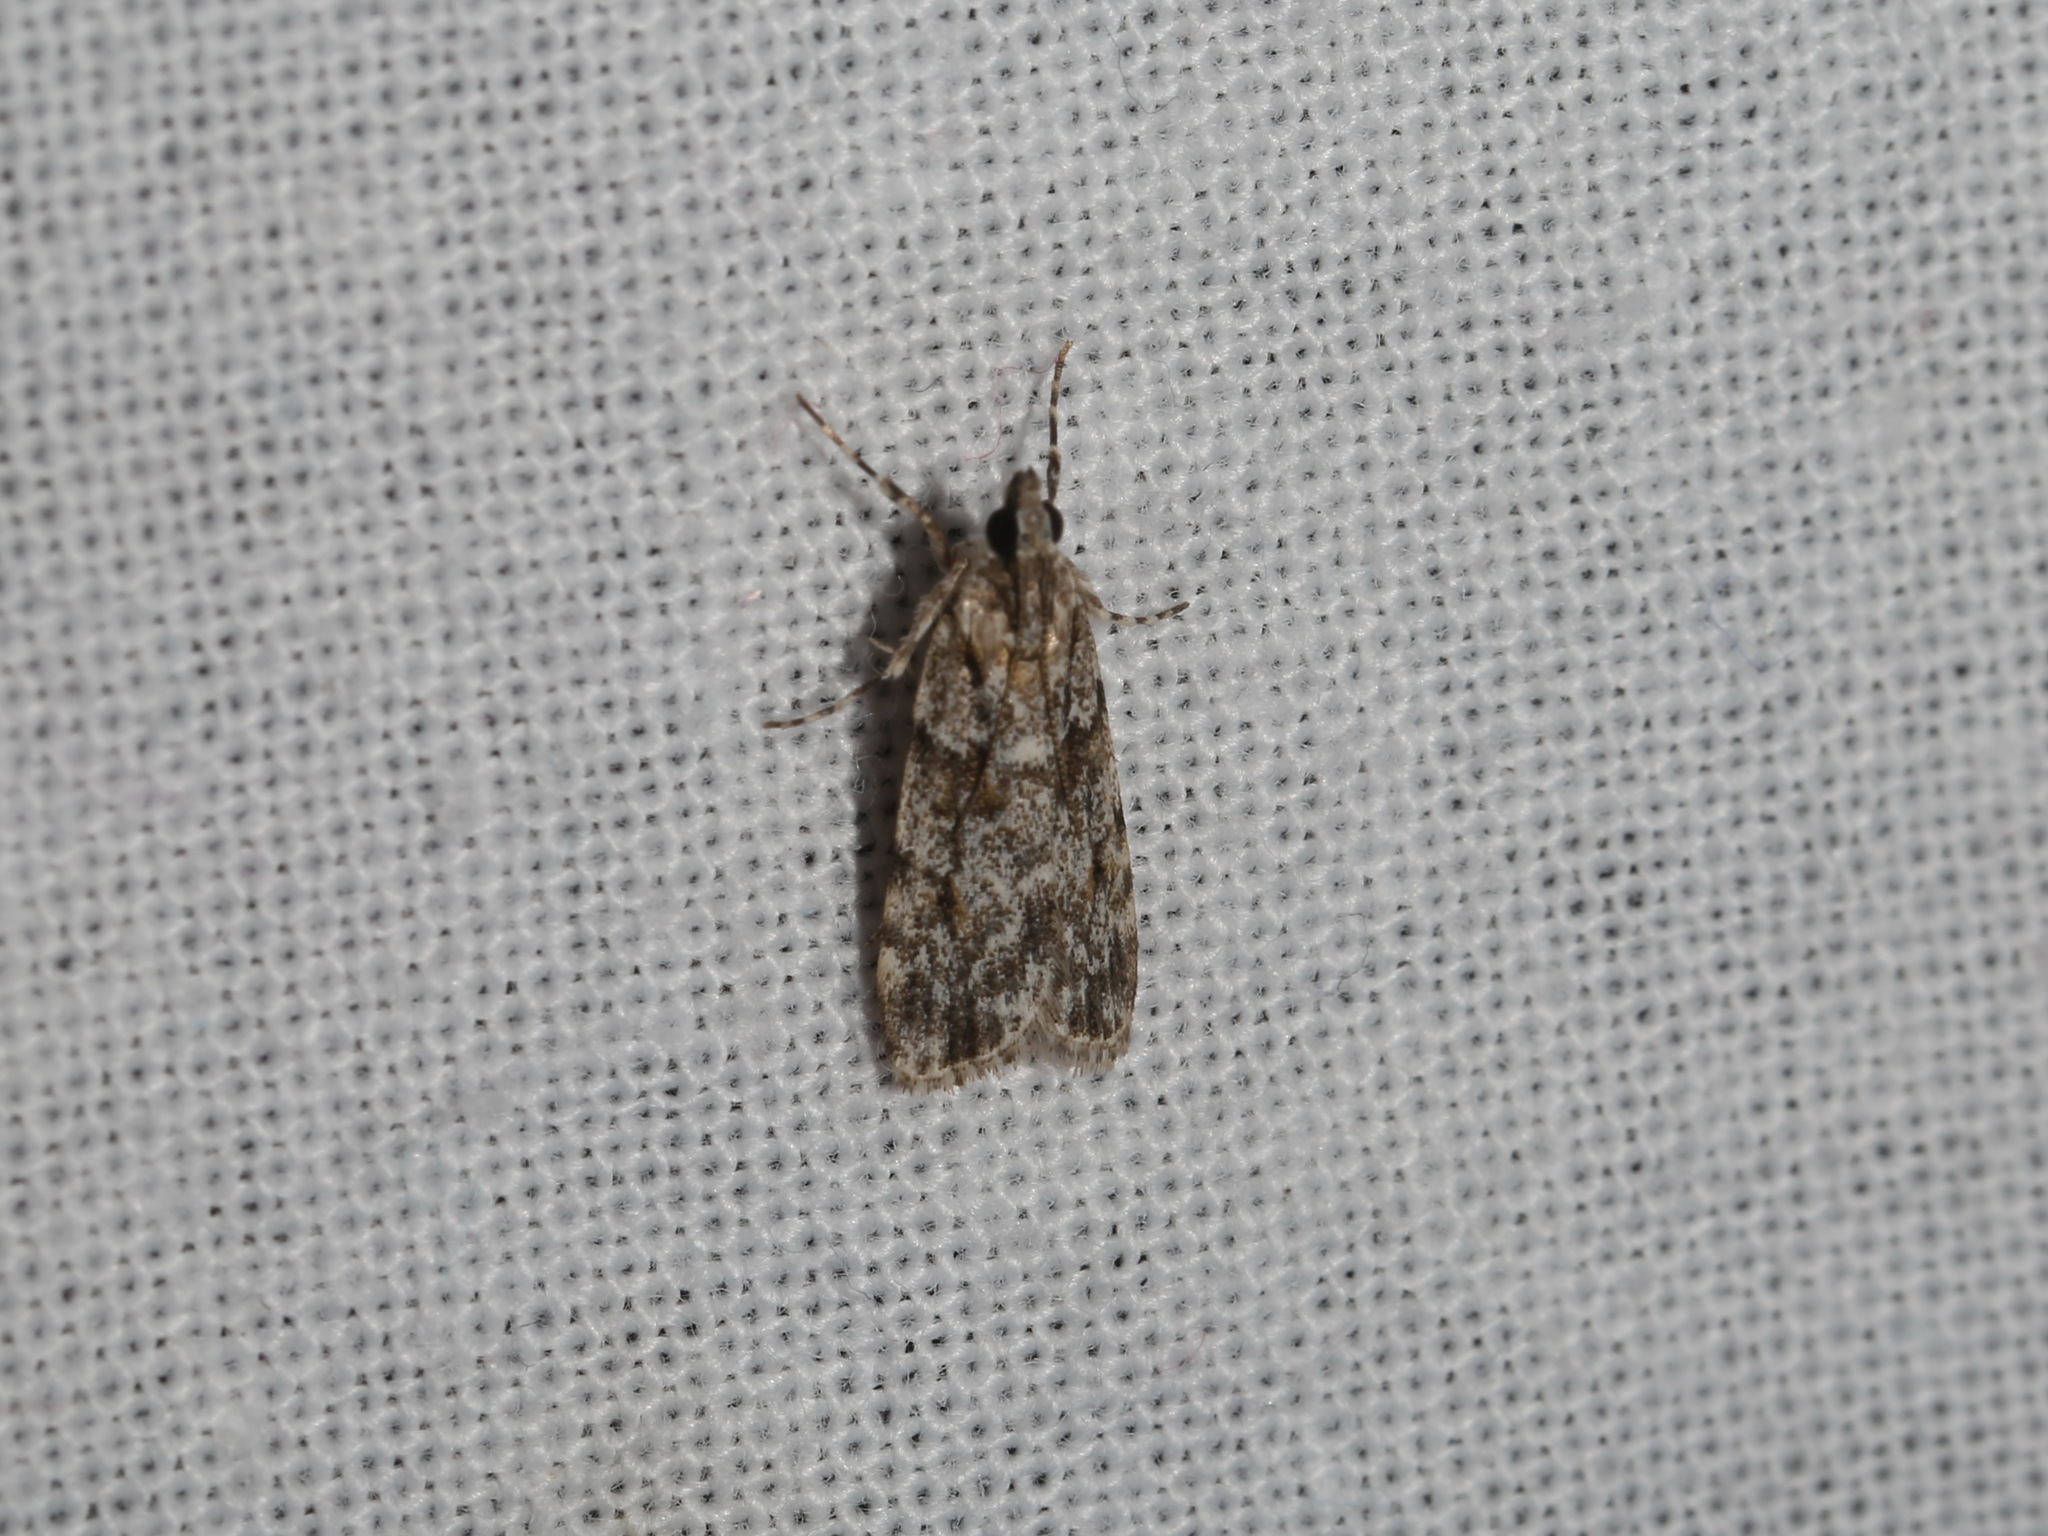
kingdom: Animalia
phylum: Arthropoda
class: Insecta
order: Lepidoptera
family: Crambidae
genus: Scoparia
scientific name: Scoparia chiasta
